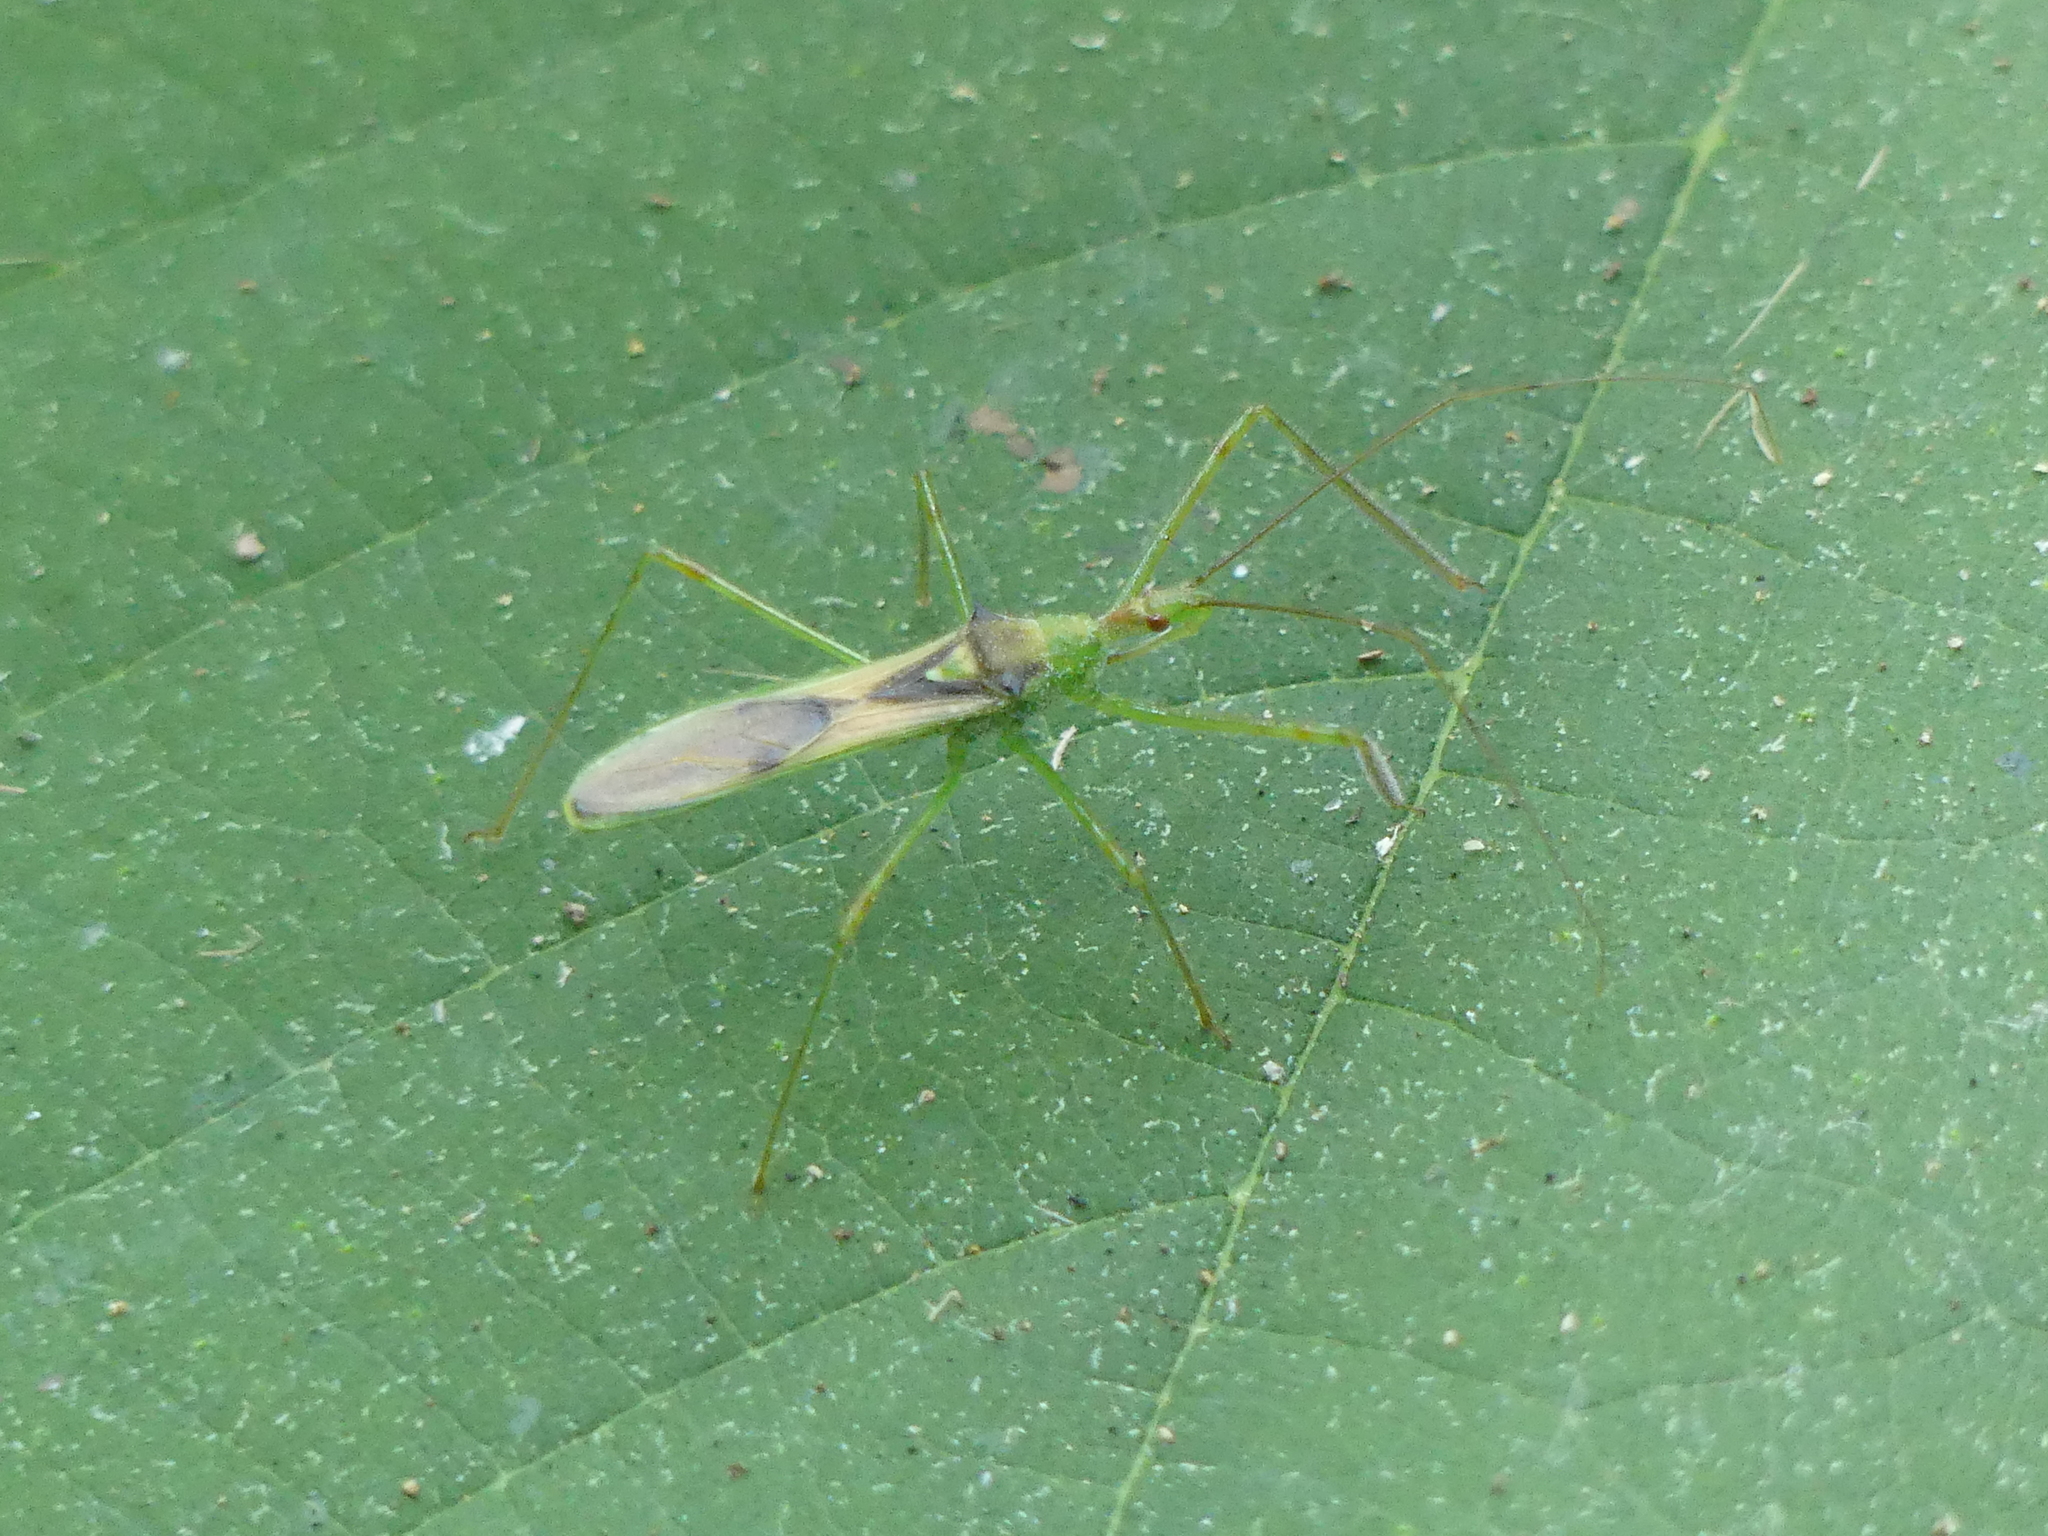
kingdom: Animalia
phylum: Arthropoda
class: Insecta
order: Hemiptera
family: Reduviidae
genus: Zelus
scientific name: Zelus luridus
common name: Pale green assassin bug
